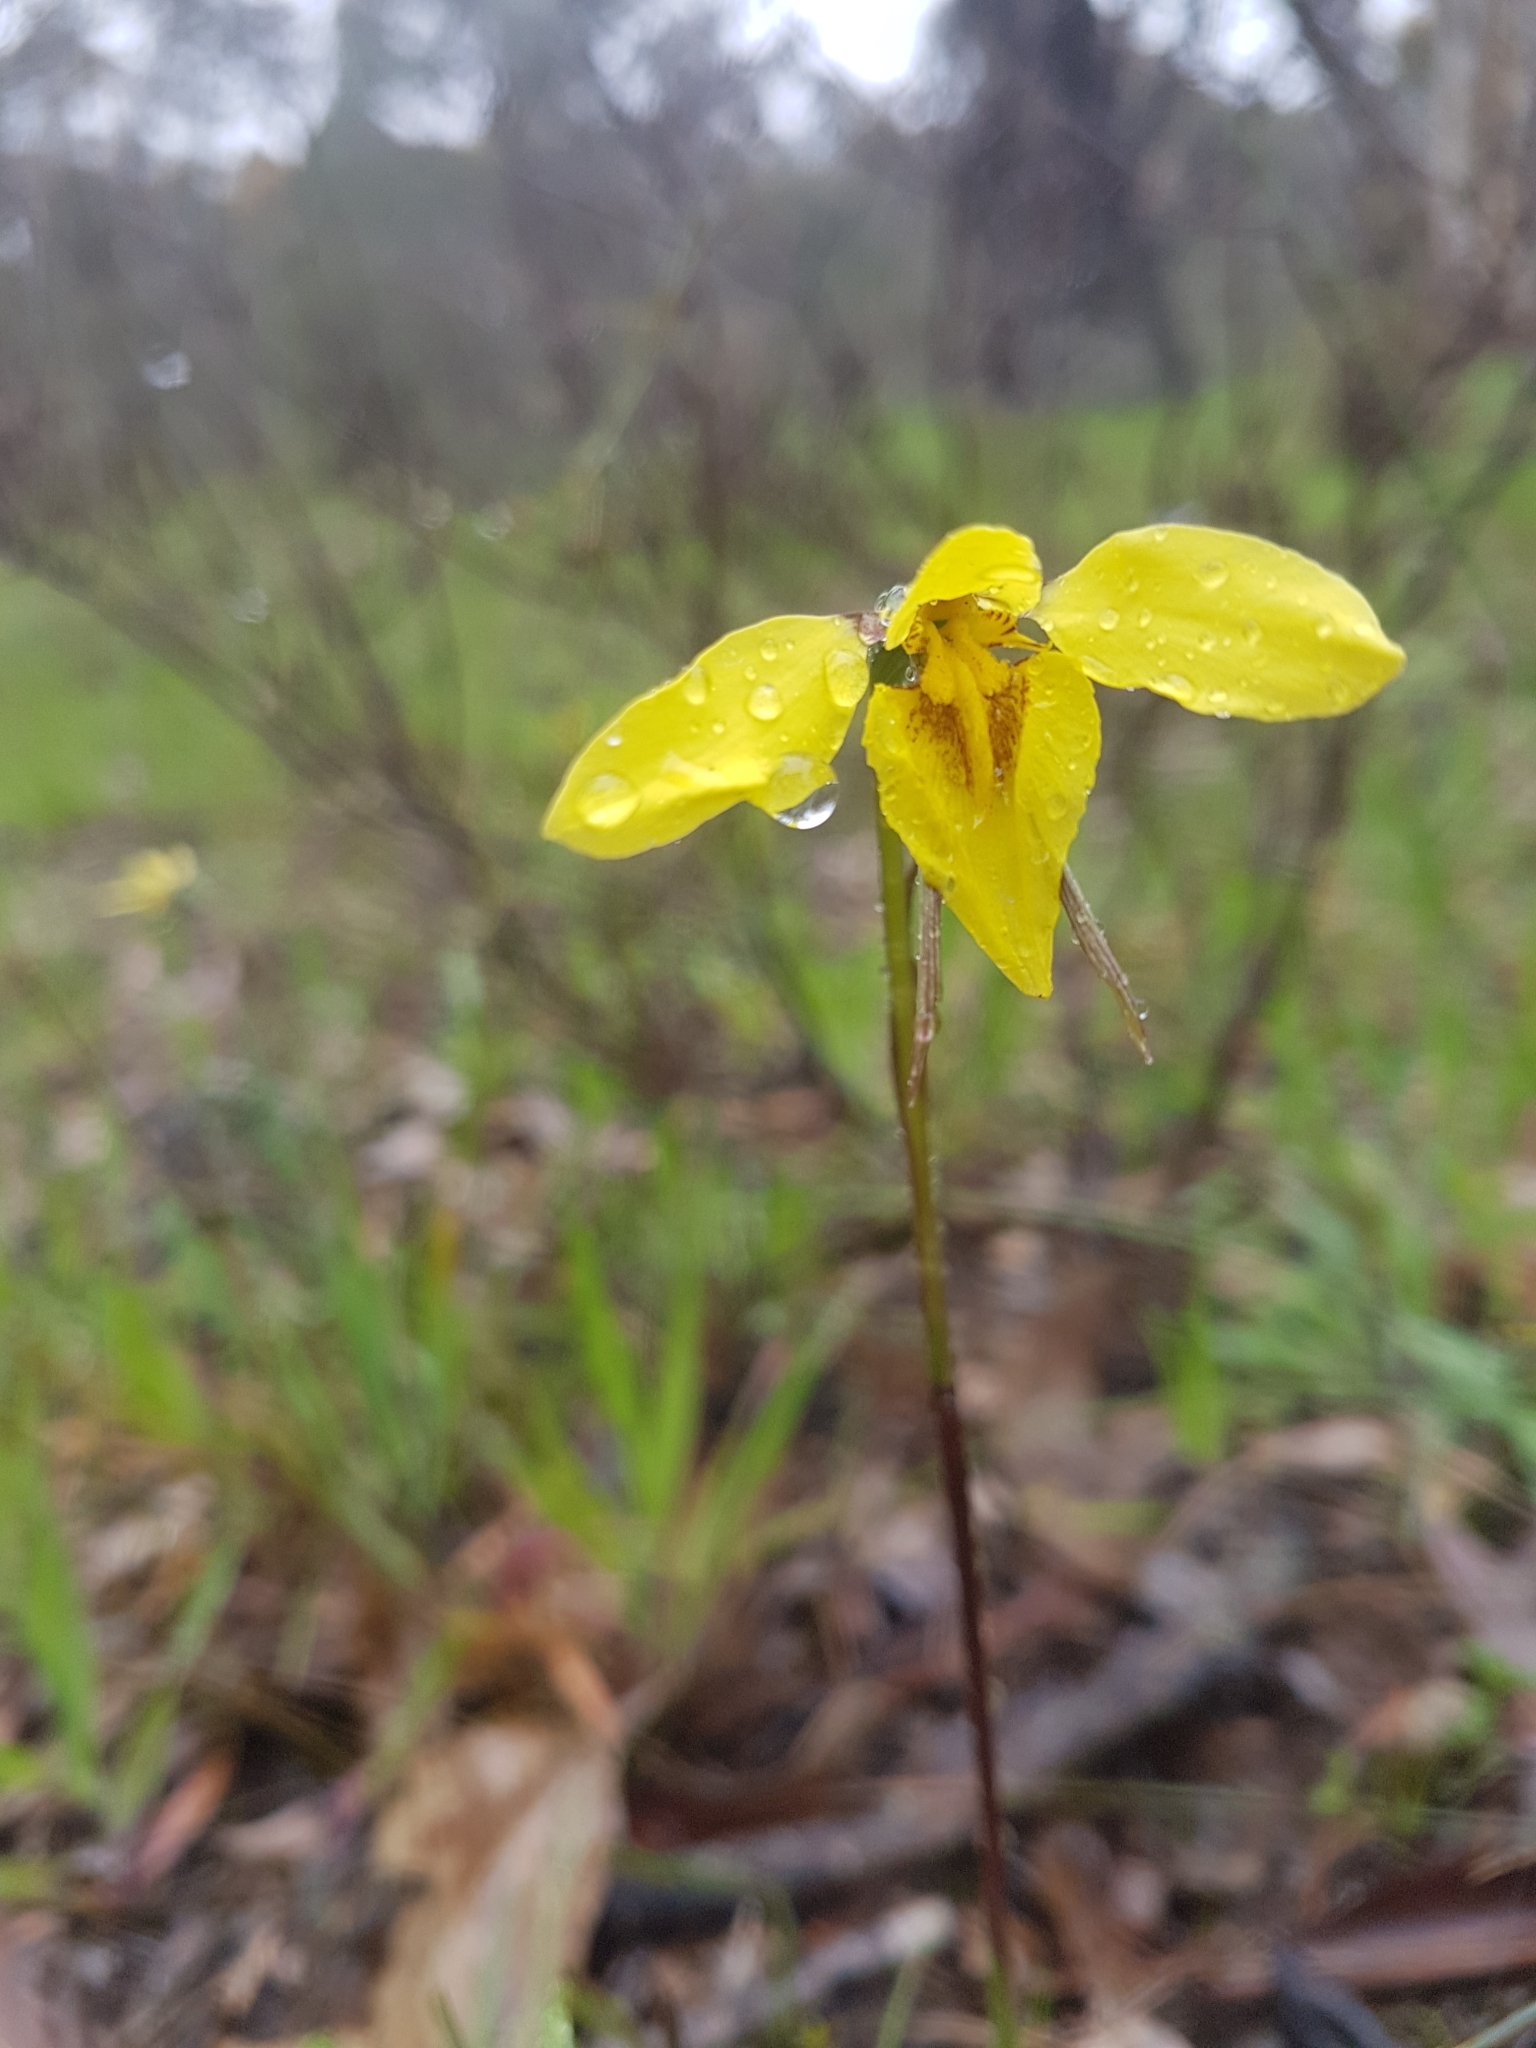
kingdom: Plantae
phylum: Tracheophyta
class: Liliopsida
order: Asparagales
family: Orchidaceae
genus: Diuris
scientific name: Diuris chryseopsis
